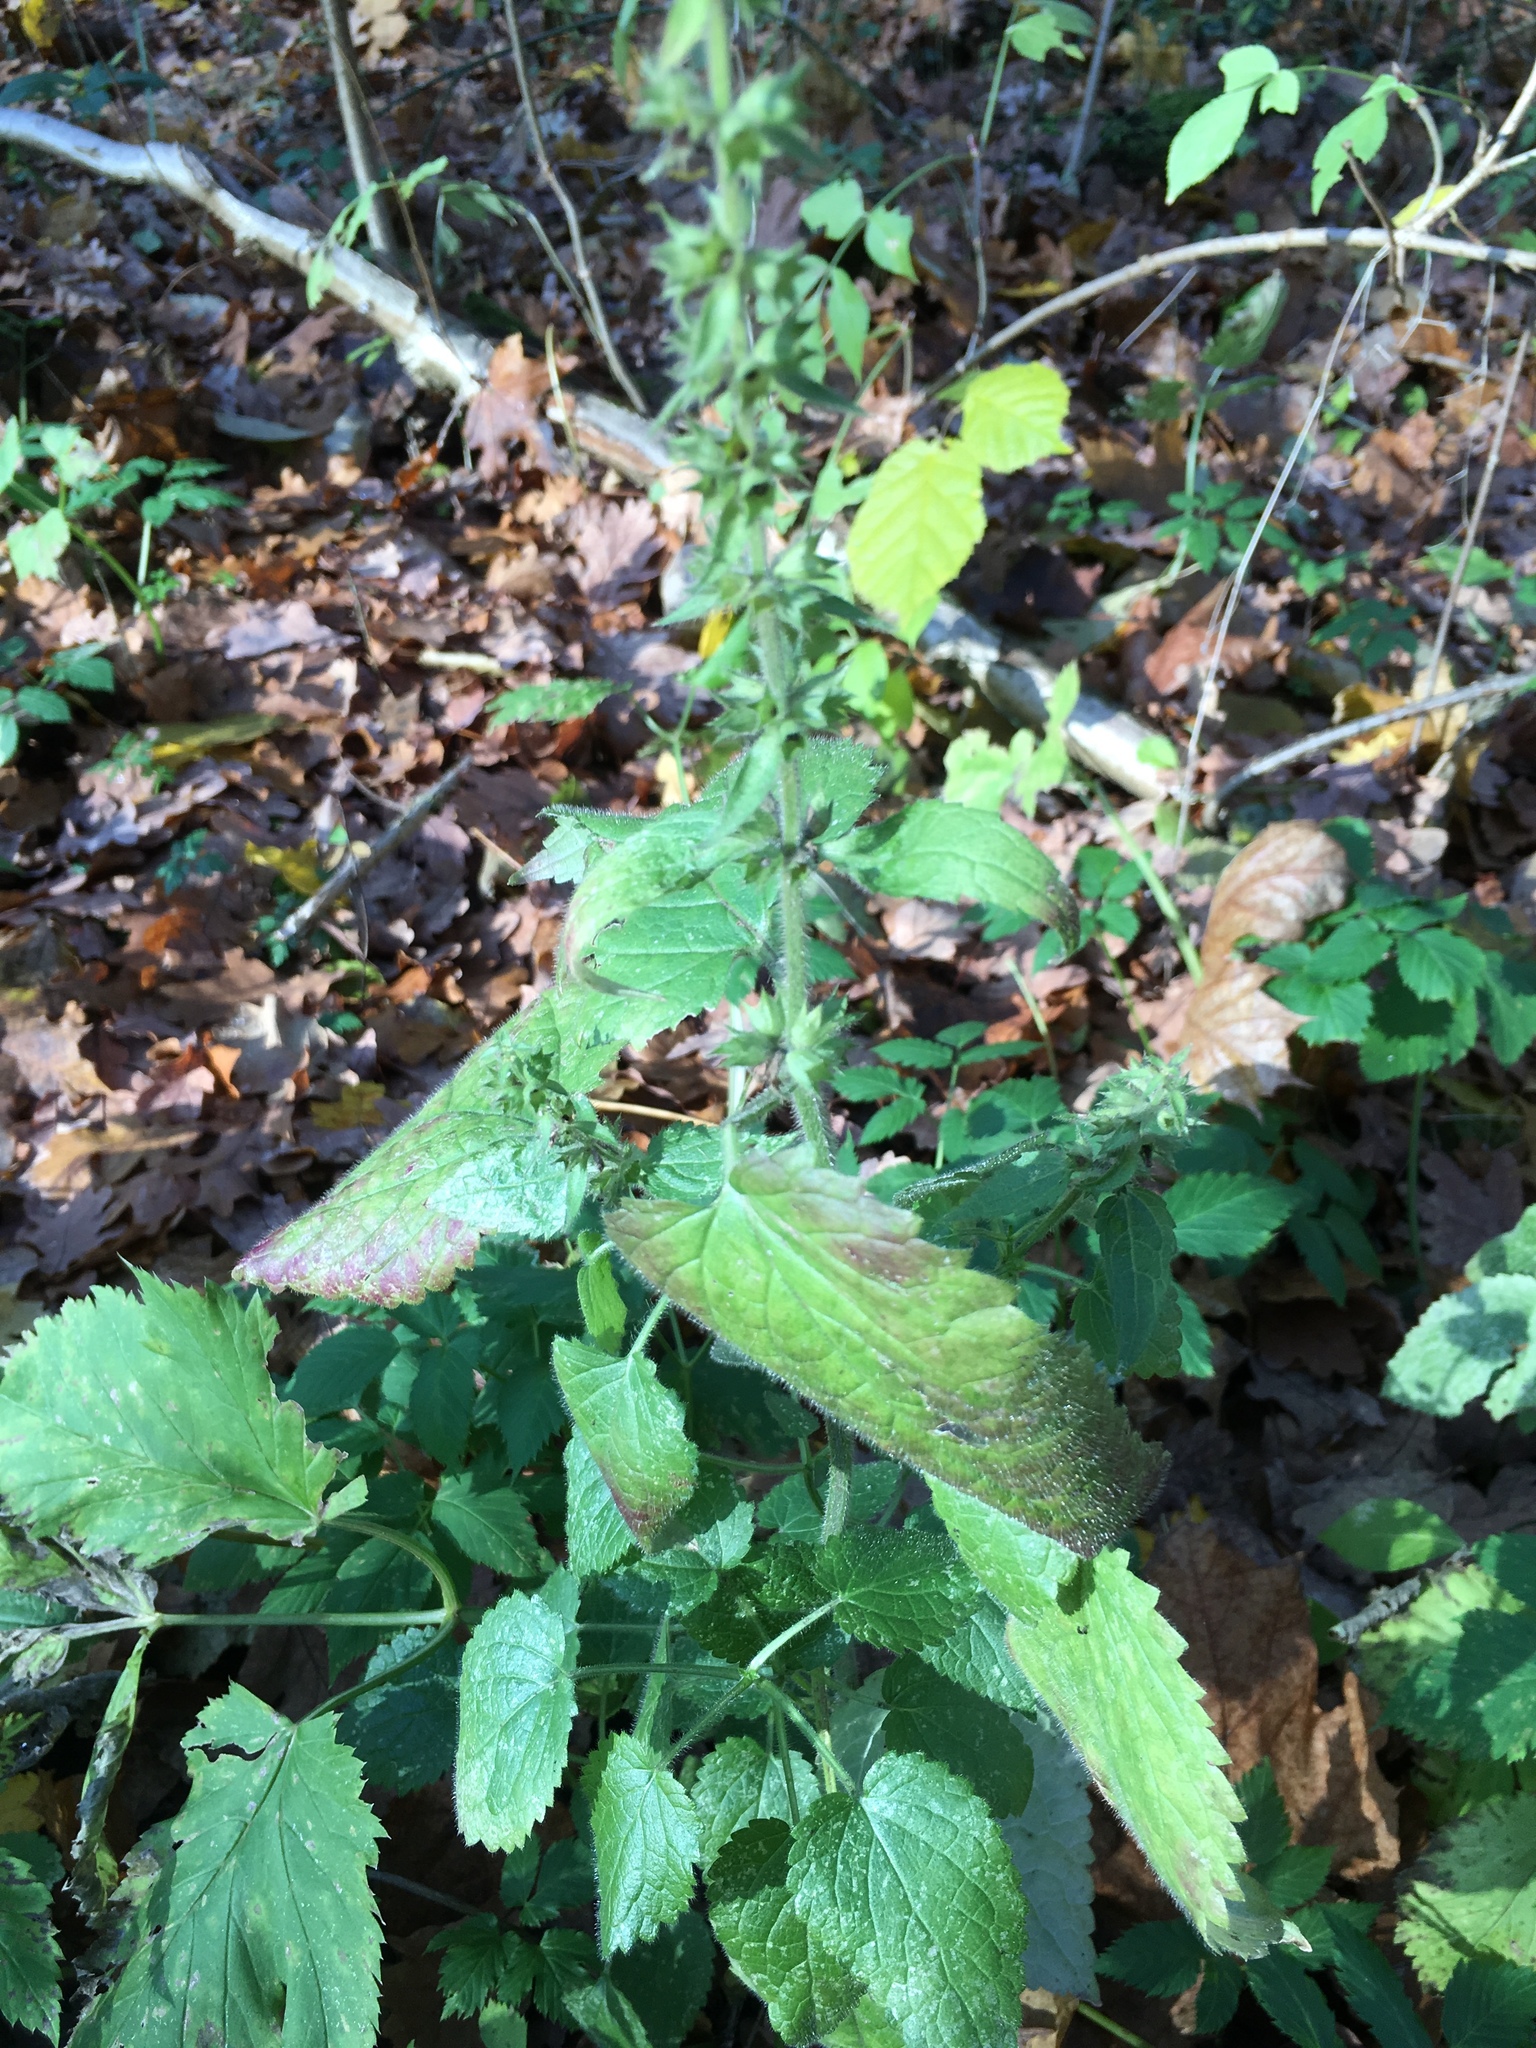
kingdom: Plantae
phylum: Tracheophyta
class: Magnoliopsida
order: Lamiales
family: Lamiaceae
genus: Stachys
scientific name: Stachys sylvatica
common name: Hedge woundwort
